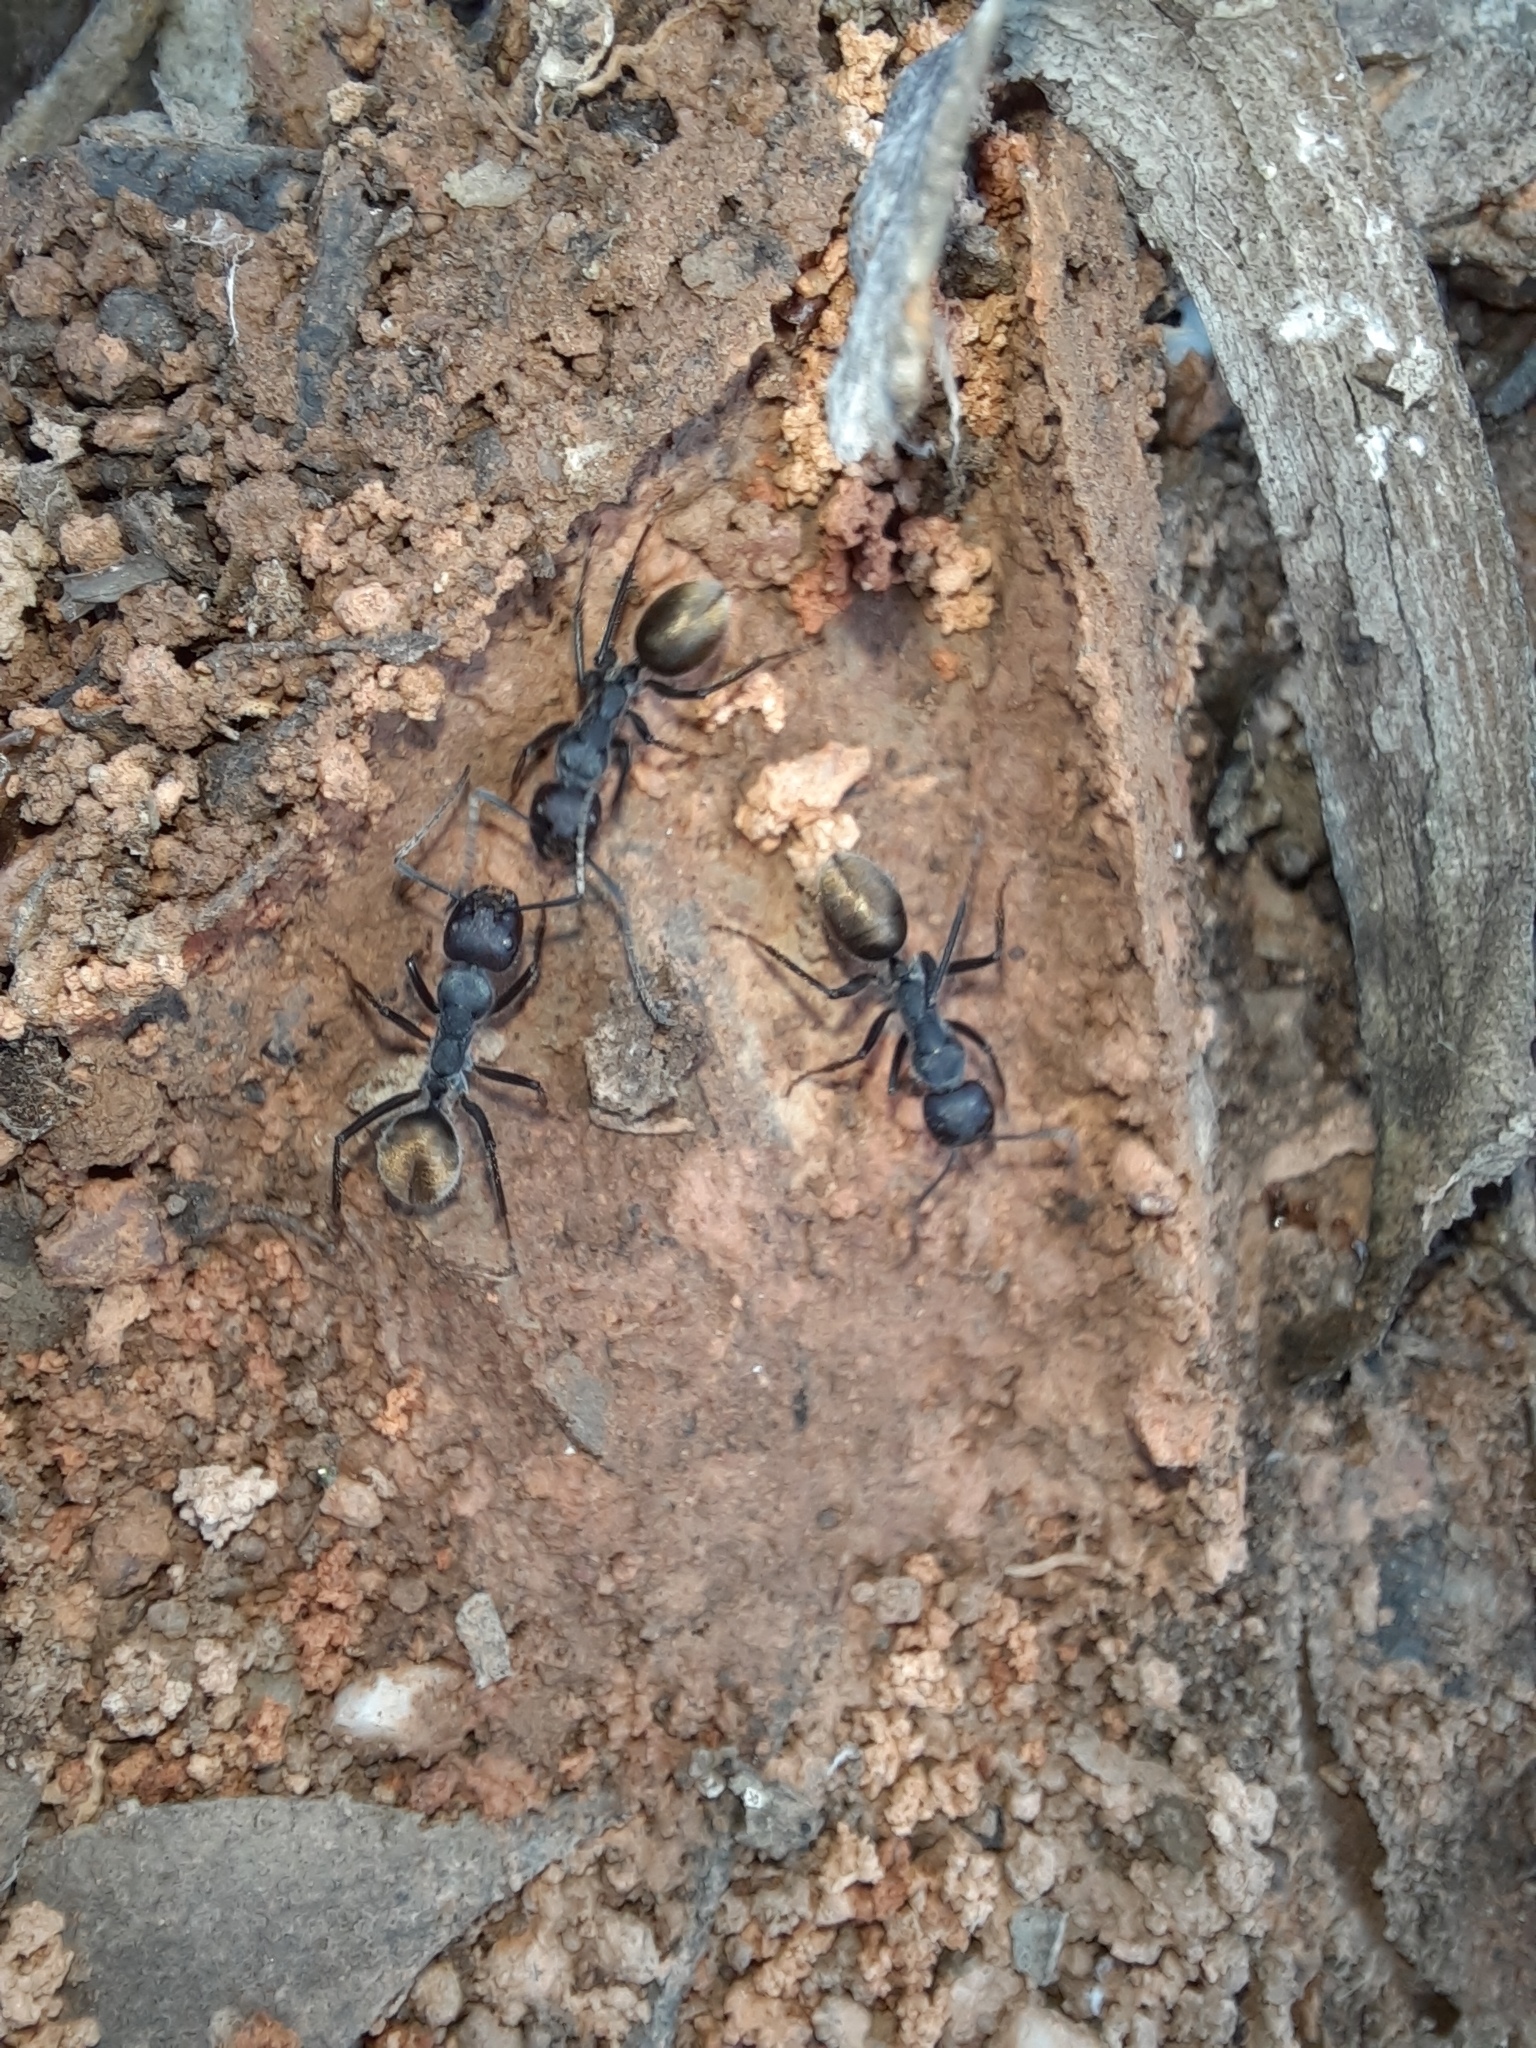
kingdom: Animalia
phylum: Arthropoda
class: Insecta
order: Hymenoptera
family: Formicidae
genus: Camponotus
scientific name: Camponotus suffusus
